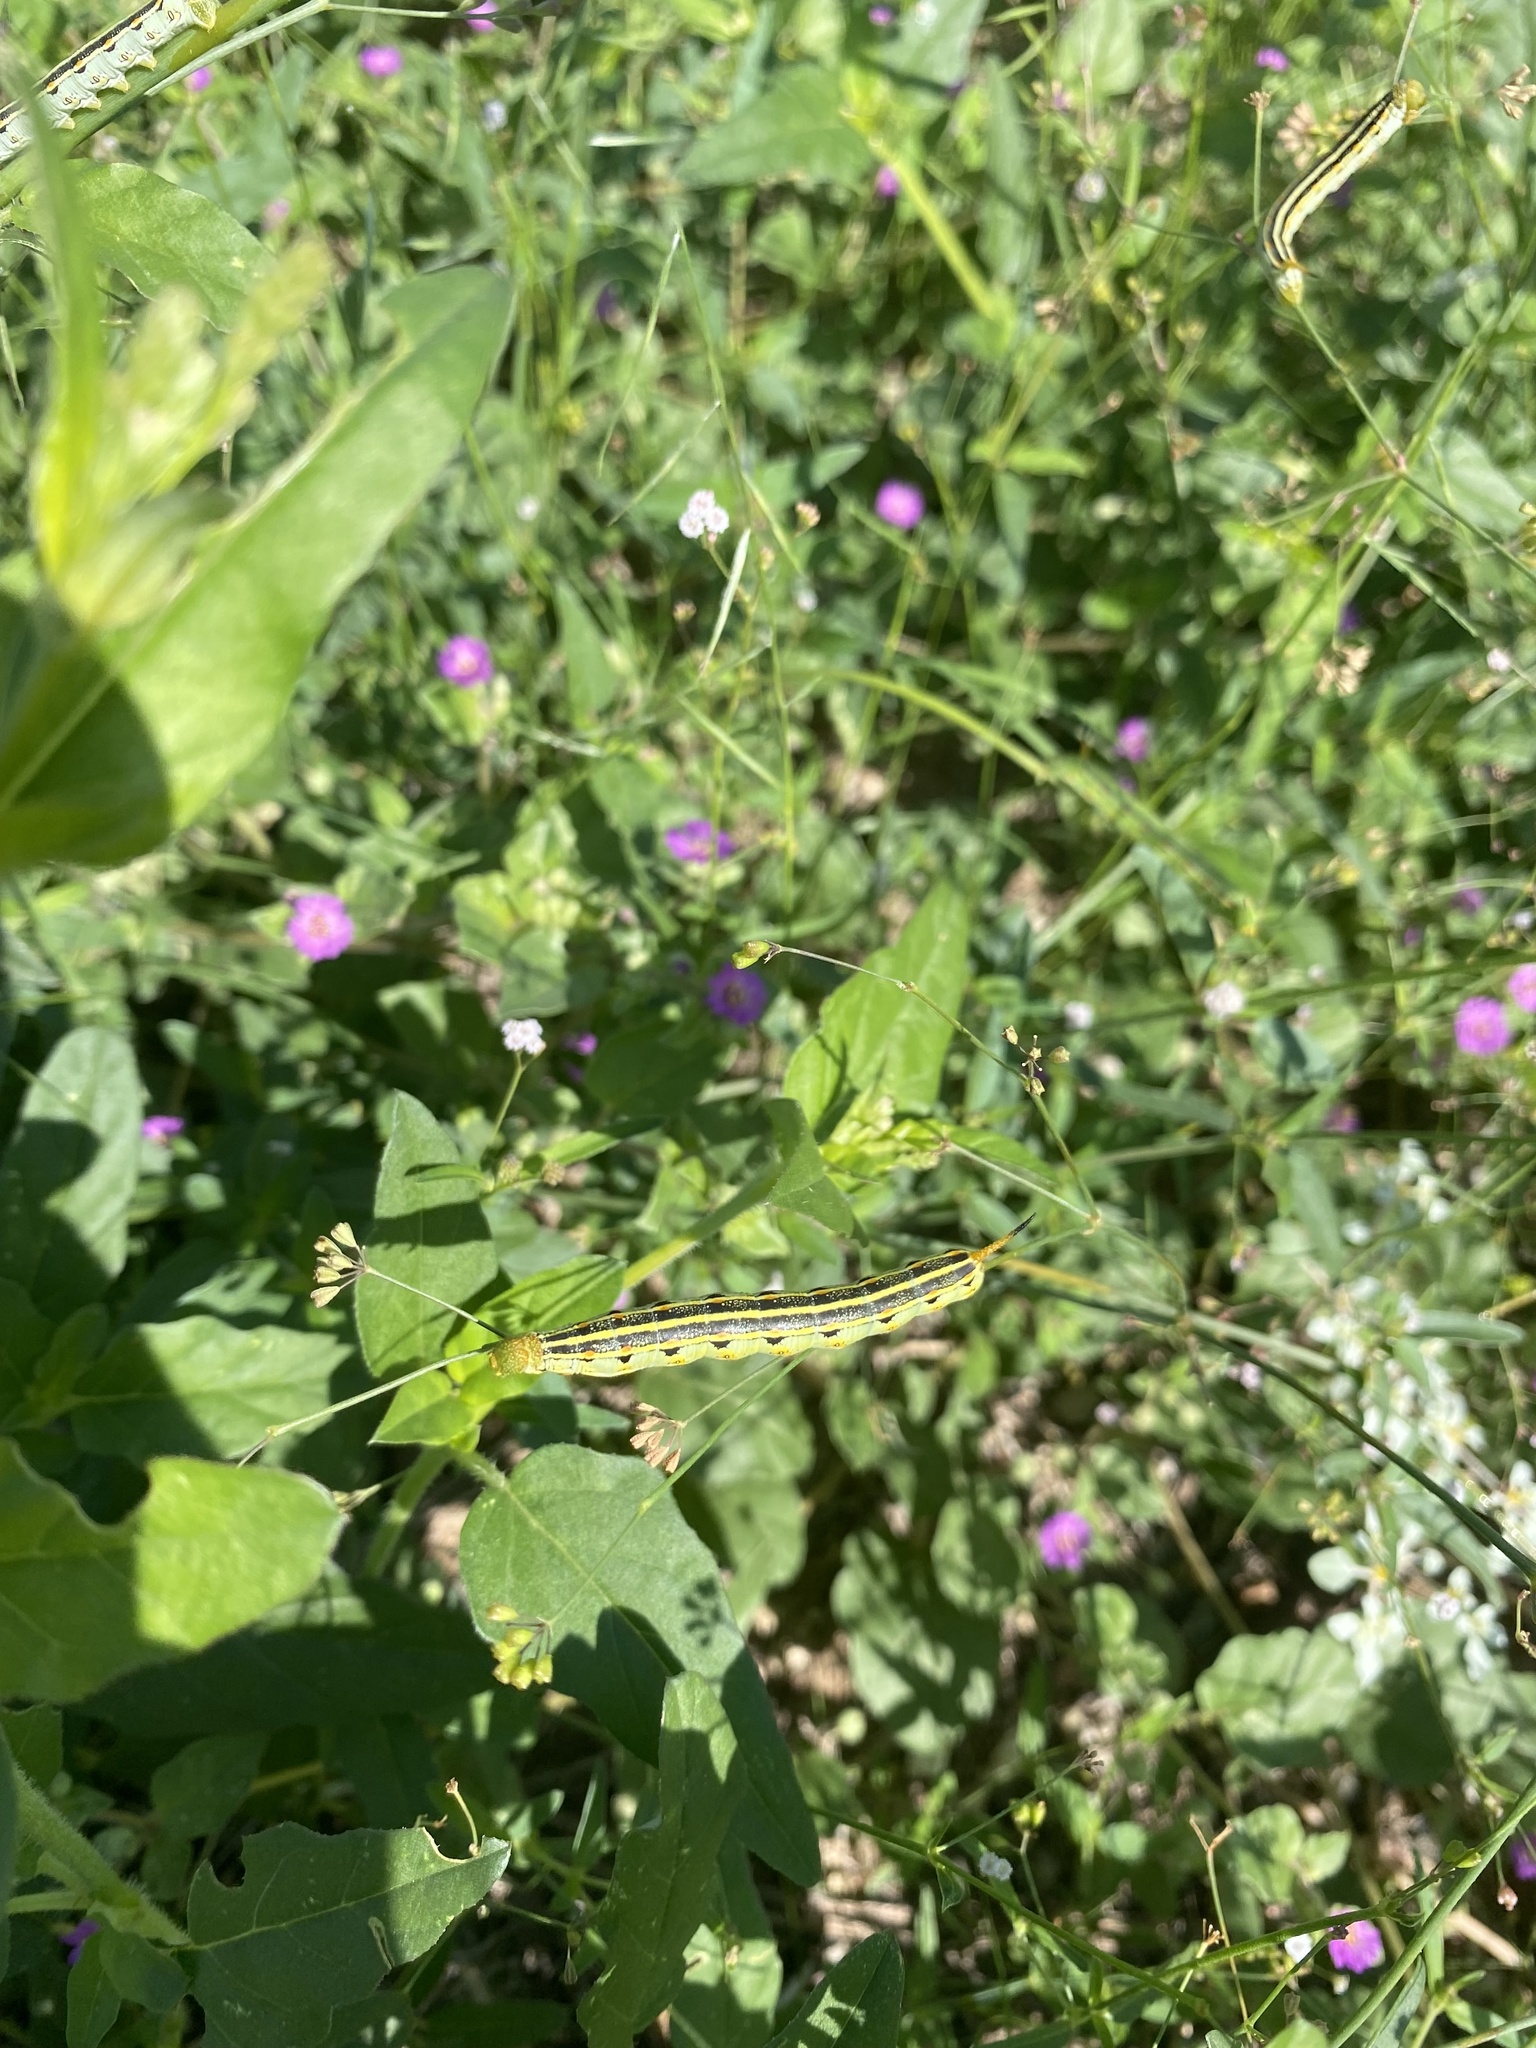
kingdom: Animalia
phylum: Arthropoda
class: Insecta
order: Lepidoptera
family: Sphingidae
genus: Hyles
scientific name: Hyles lineata
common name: White-lined sphinx
